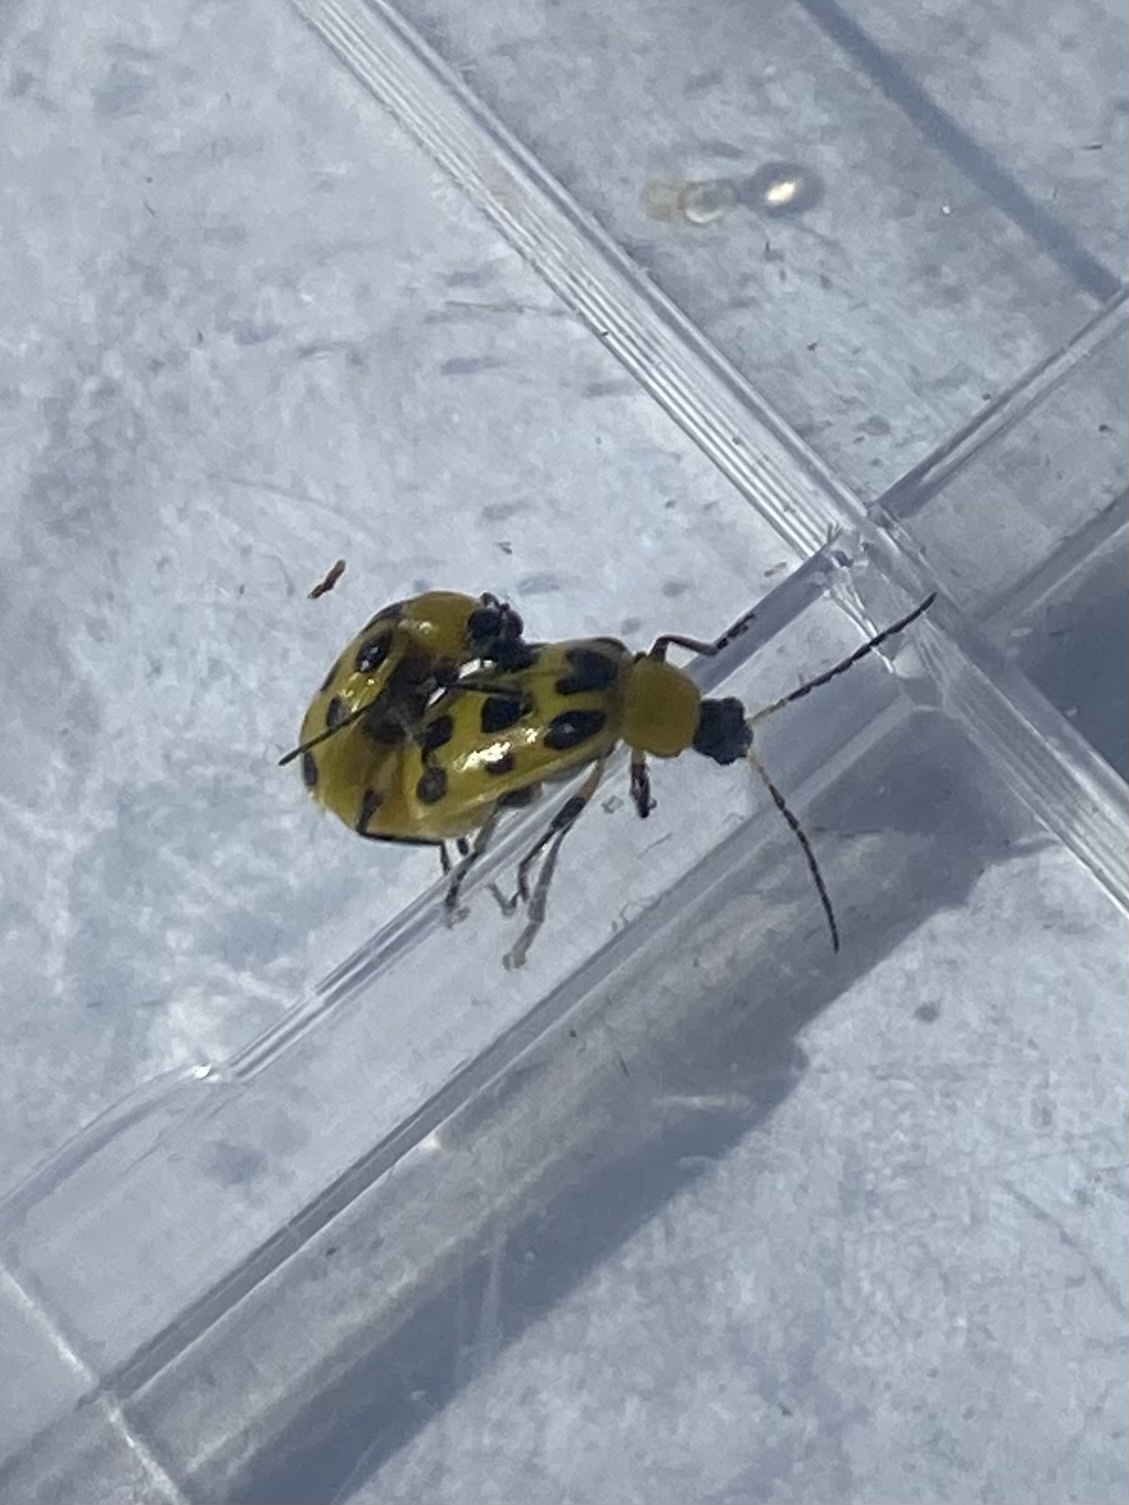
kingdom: Animalia
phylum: Arthropoda
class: Insecta
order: Coleoptera
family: Chrysomelidae
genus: Diabrotica
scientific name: Diabrotica undecimpunctata
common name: Spotted cucumber beetle
